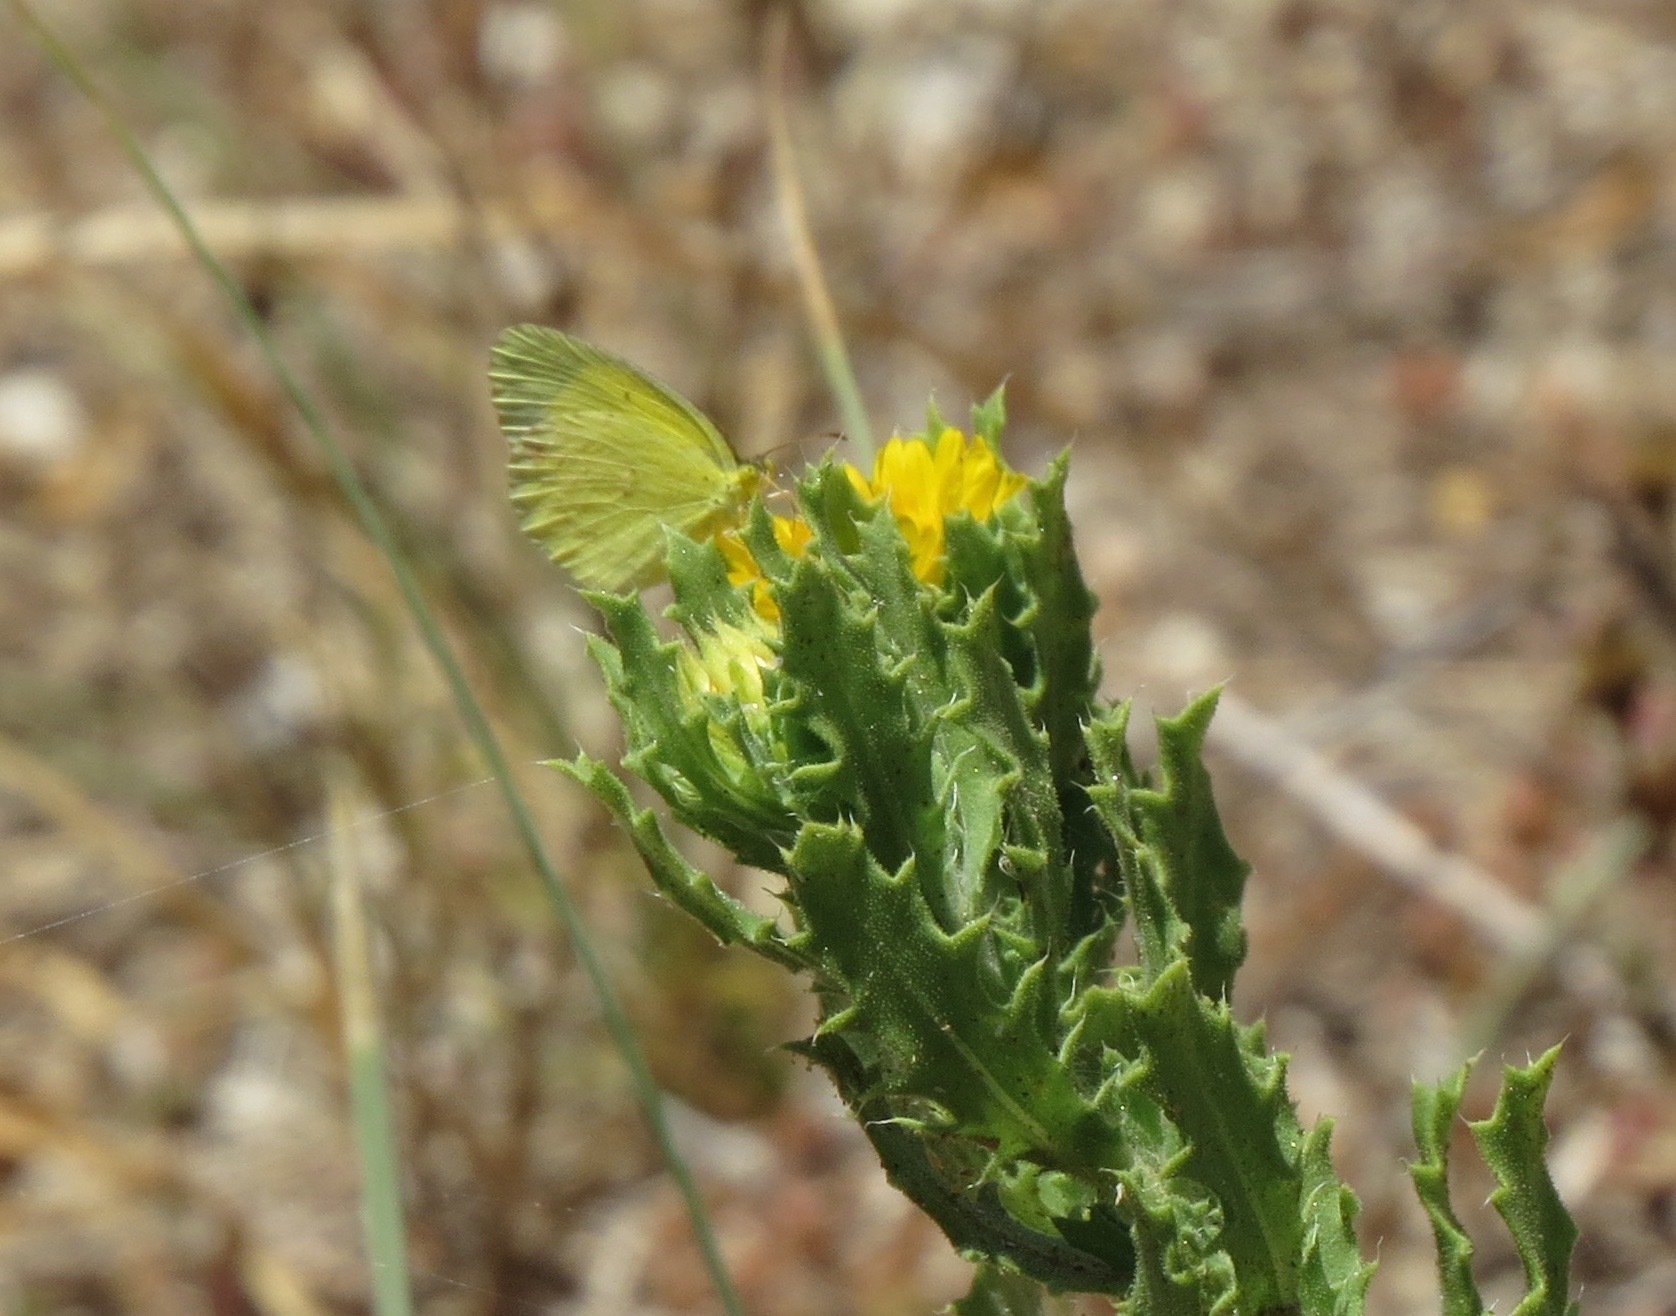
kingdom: Animalia
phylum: Arthropoda
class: Insecta
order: Lepidoptera
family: Pieridae
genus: Pyrisitia
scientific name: Pyrisitia lisa
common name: Little yellow
